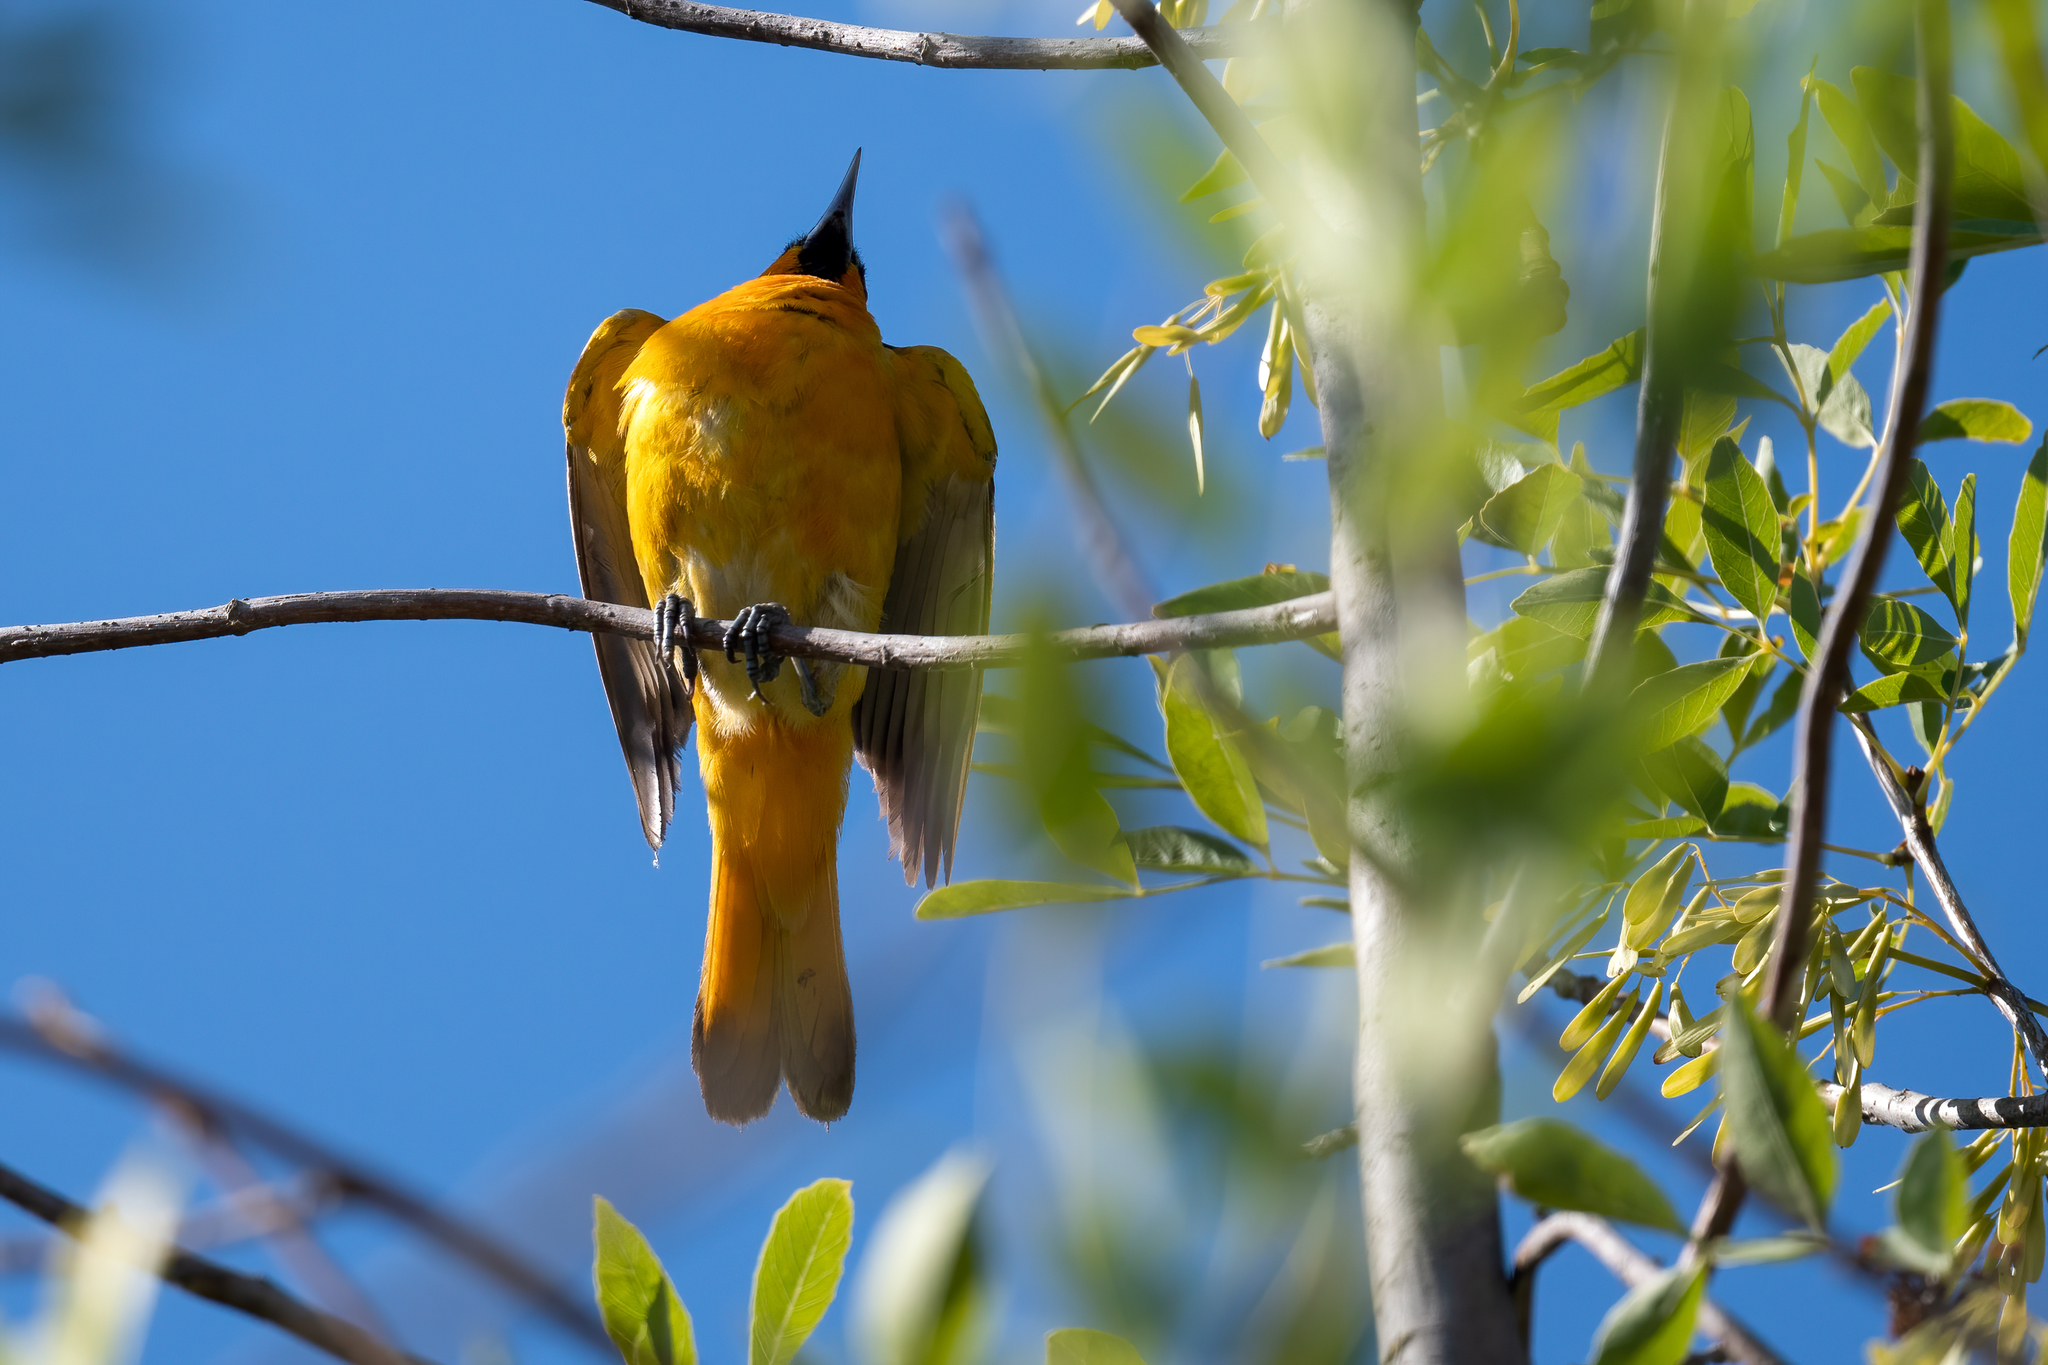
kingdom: Animalia
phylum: Chordata
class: Aves
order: Passeriformes
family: Icteridae
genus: Icterus
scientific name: Icterus bullockii
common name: Bullock's oriole
